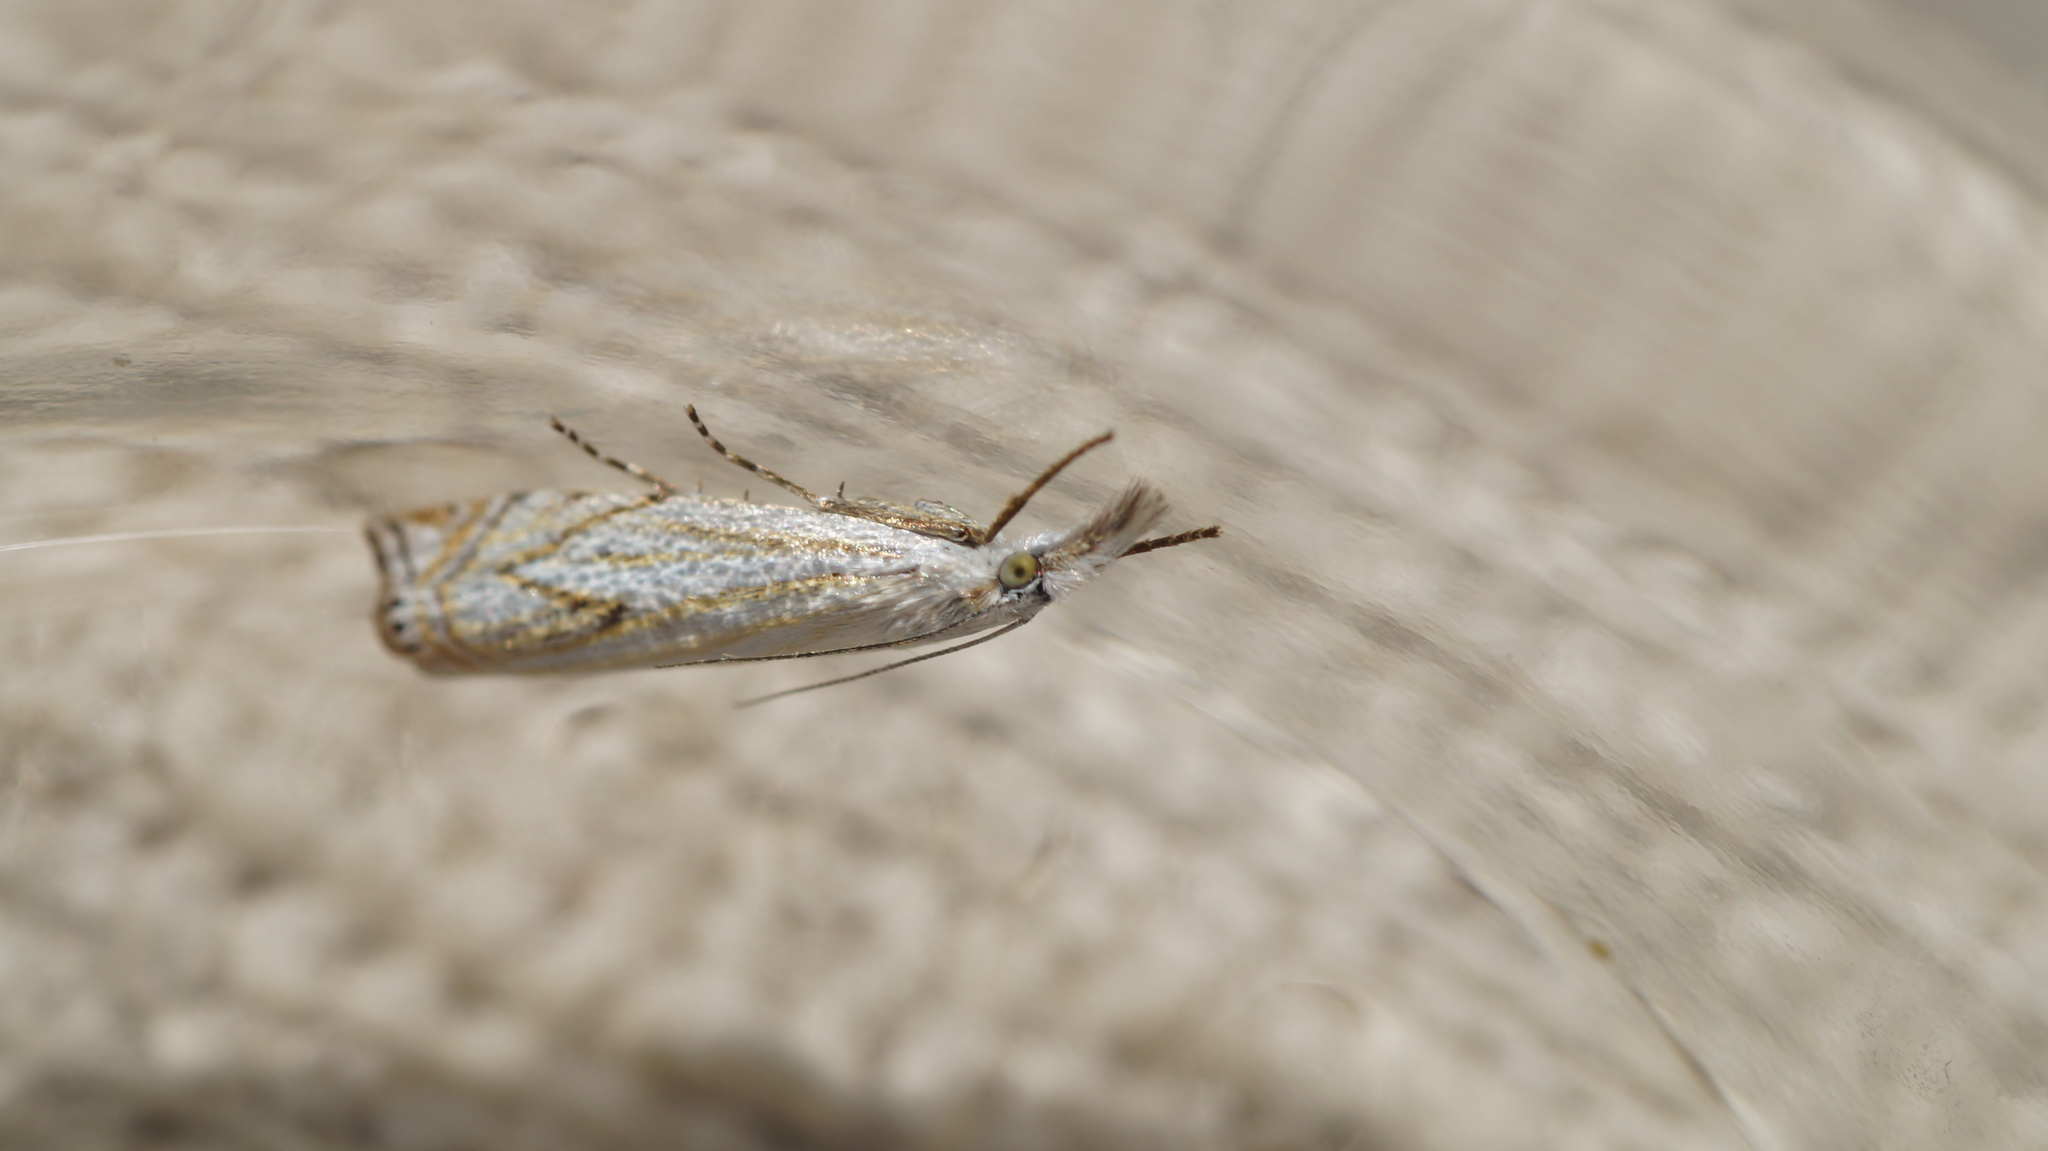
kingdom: Animalia
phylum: Arthropoda
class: Insecta
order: Lepidoptera
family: Crambidae
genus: Crambus
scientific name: Crambus nemorella
